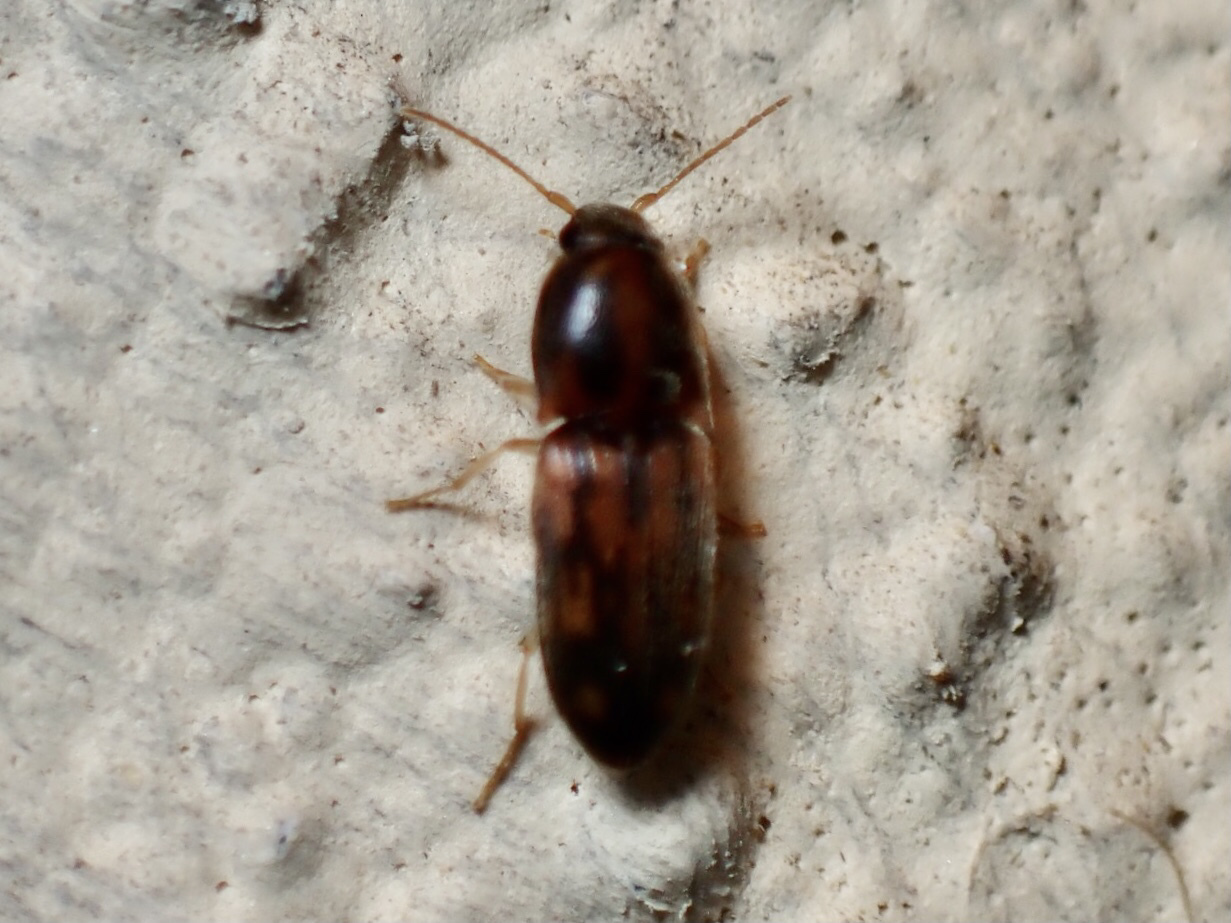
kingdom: Animalia
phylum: Arthropoda
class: Insecta
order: Coleoptera
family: Elateridae
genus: Monocrepidius
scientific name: Monocrepidius bellus
